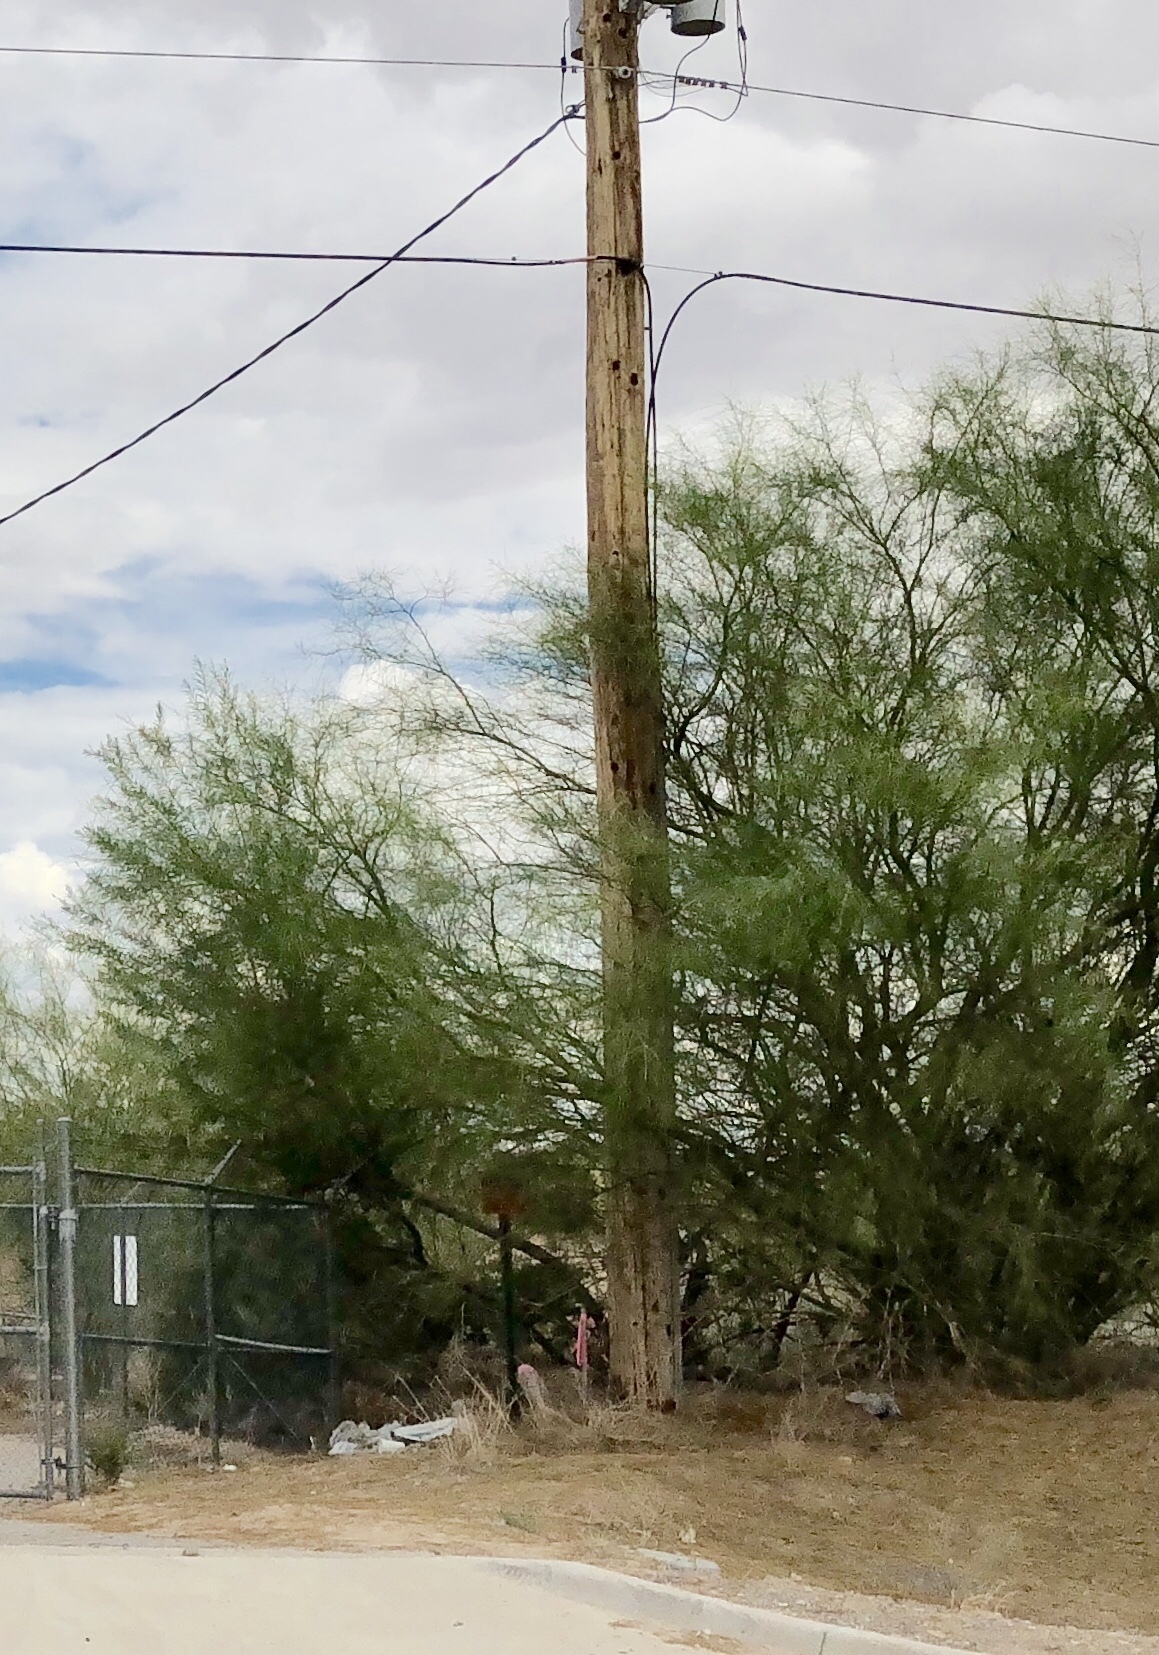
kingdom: Plantae
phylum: Tracheophyta
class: Magnoliopsida
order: Fabales
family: Fabaceae
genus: Parkinsonia
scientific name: Parkinsonia aculeata
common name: Jerusalem thorn
